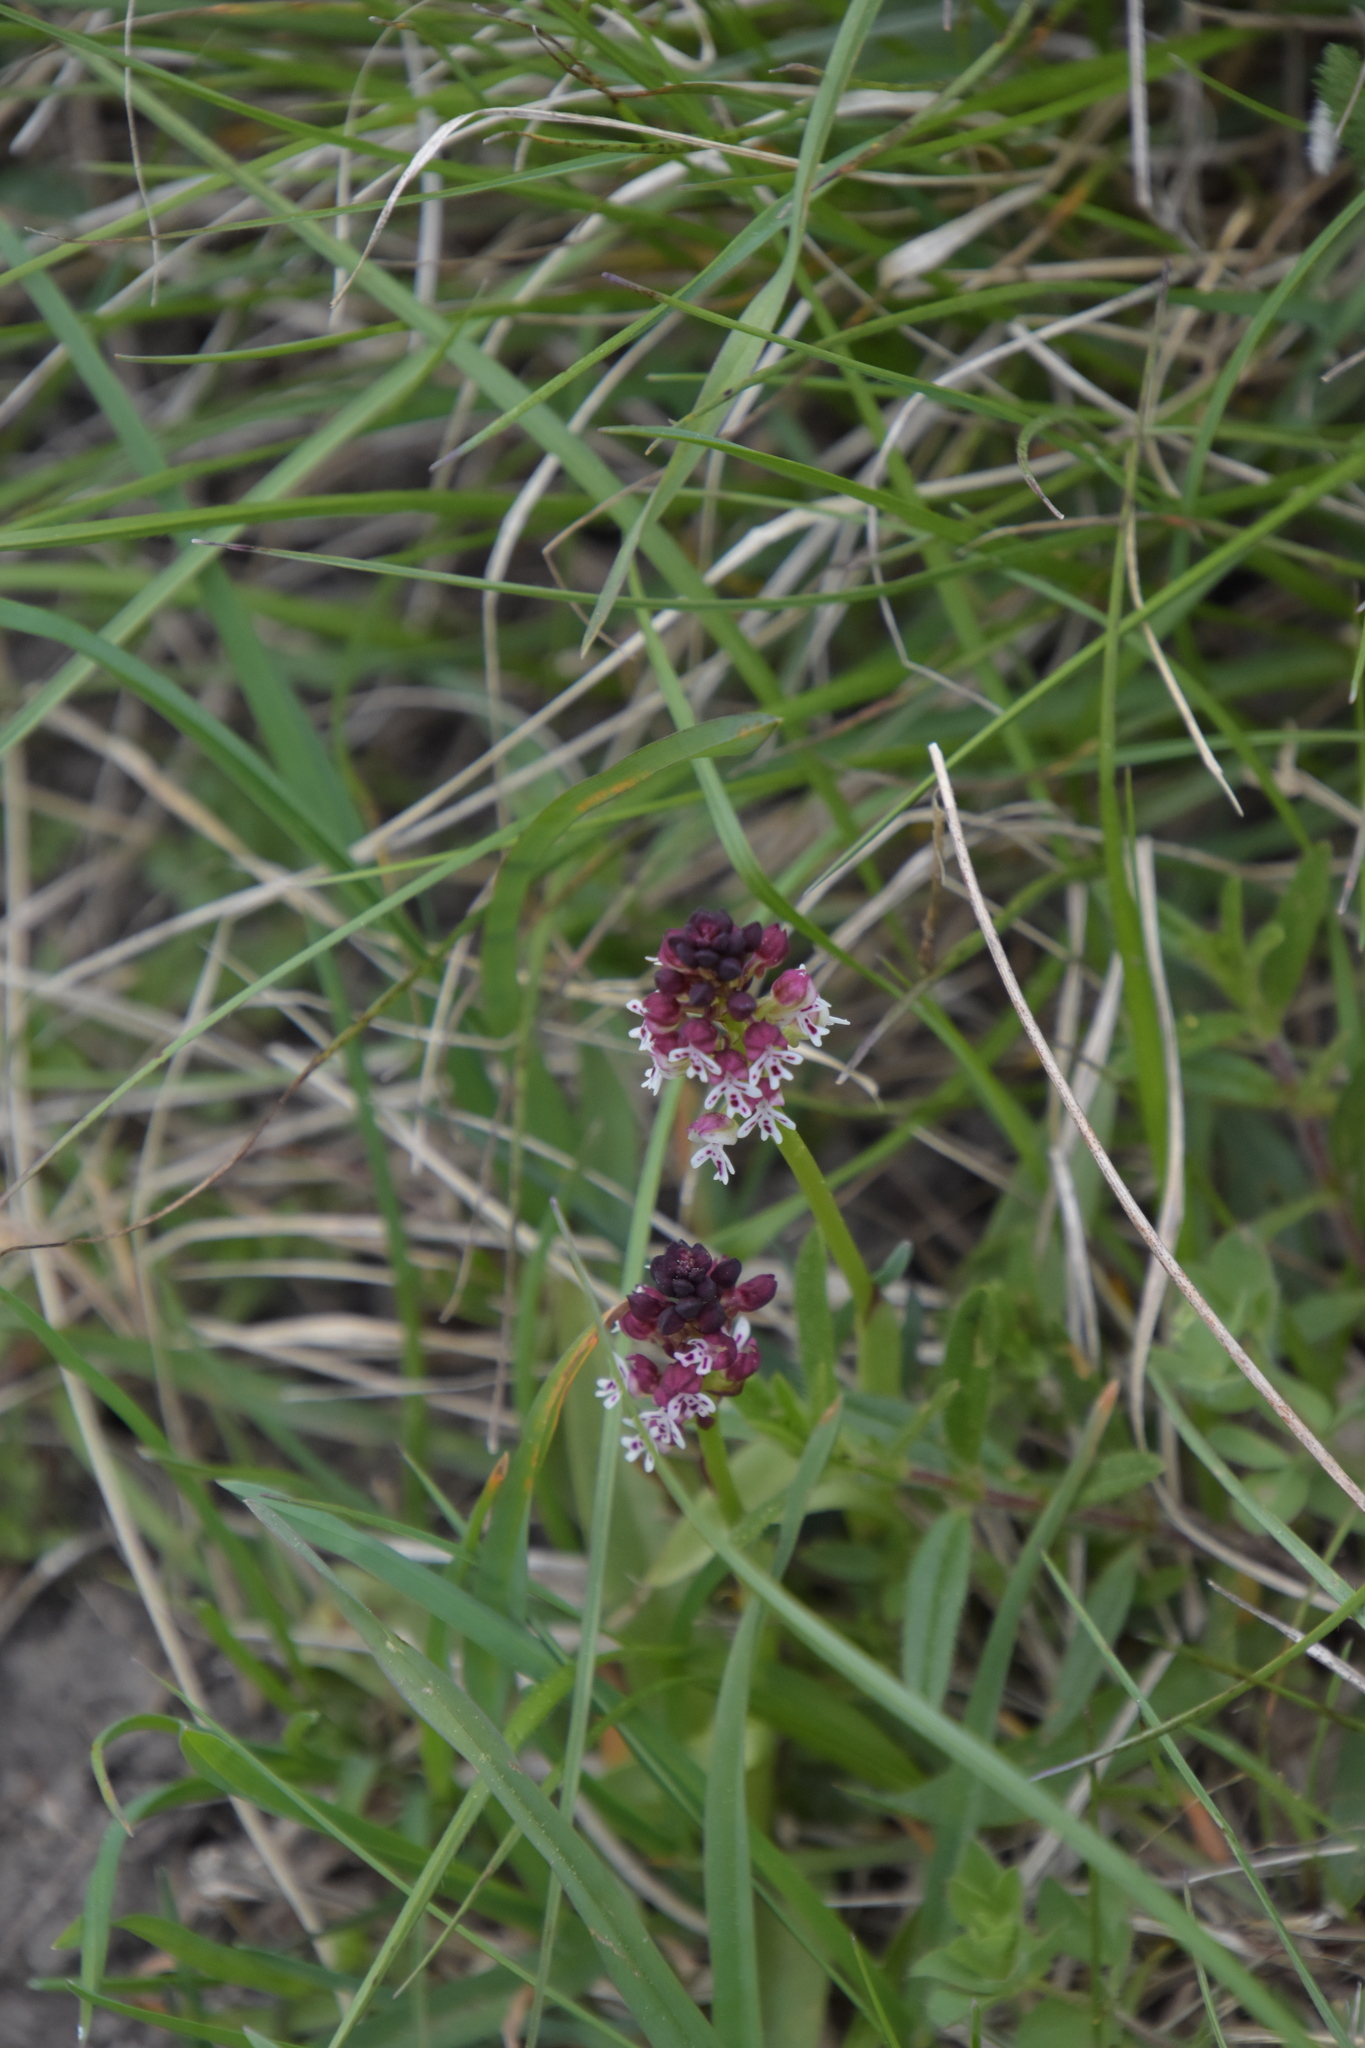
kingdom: Plantae
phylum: Tracheophyta
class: Liliopsida
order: Asparagales
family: Orchidaceae
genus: Neotinea
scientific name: Neotinea ustulata
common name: Burnt orchid
